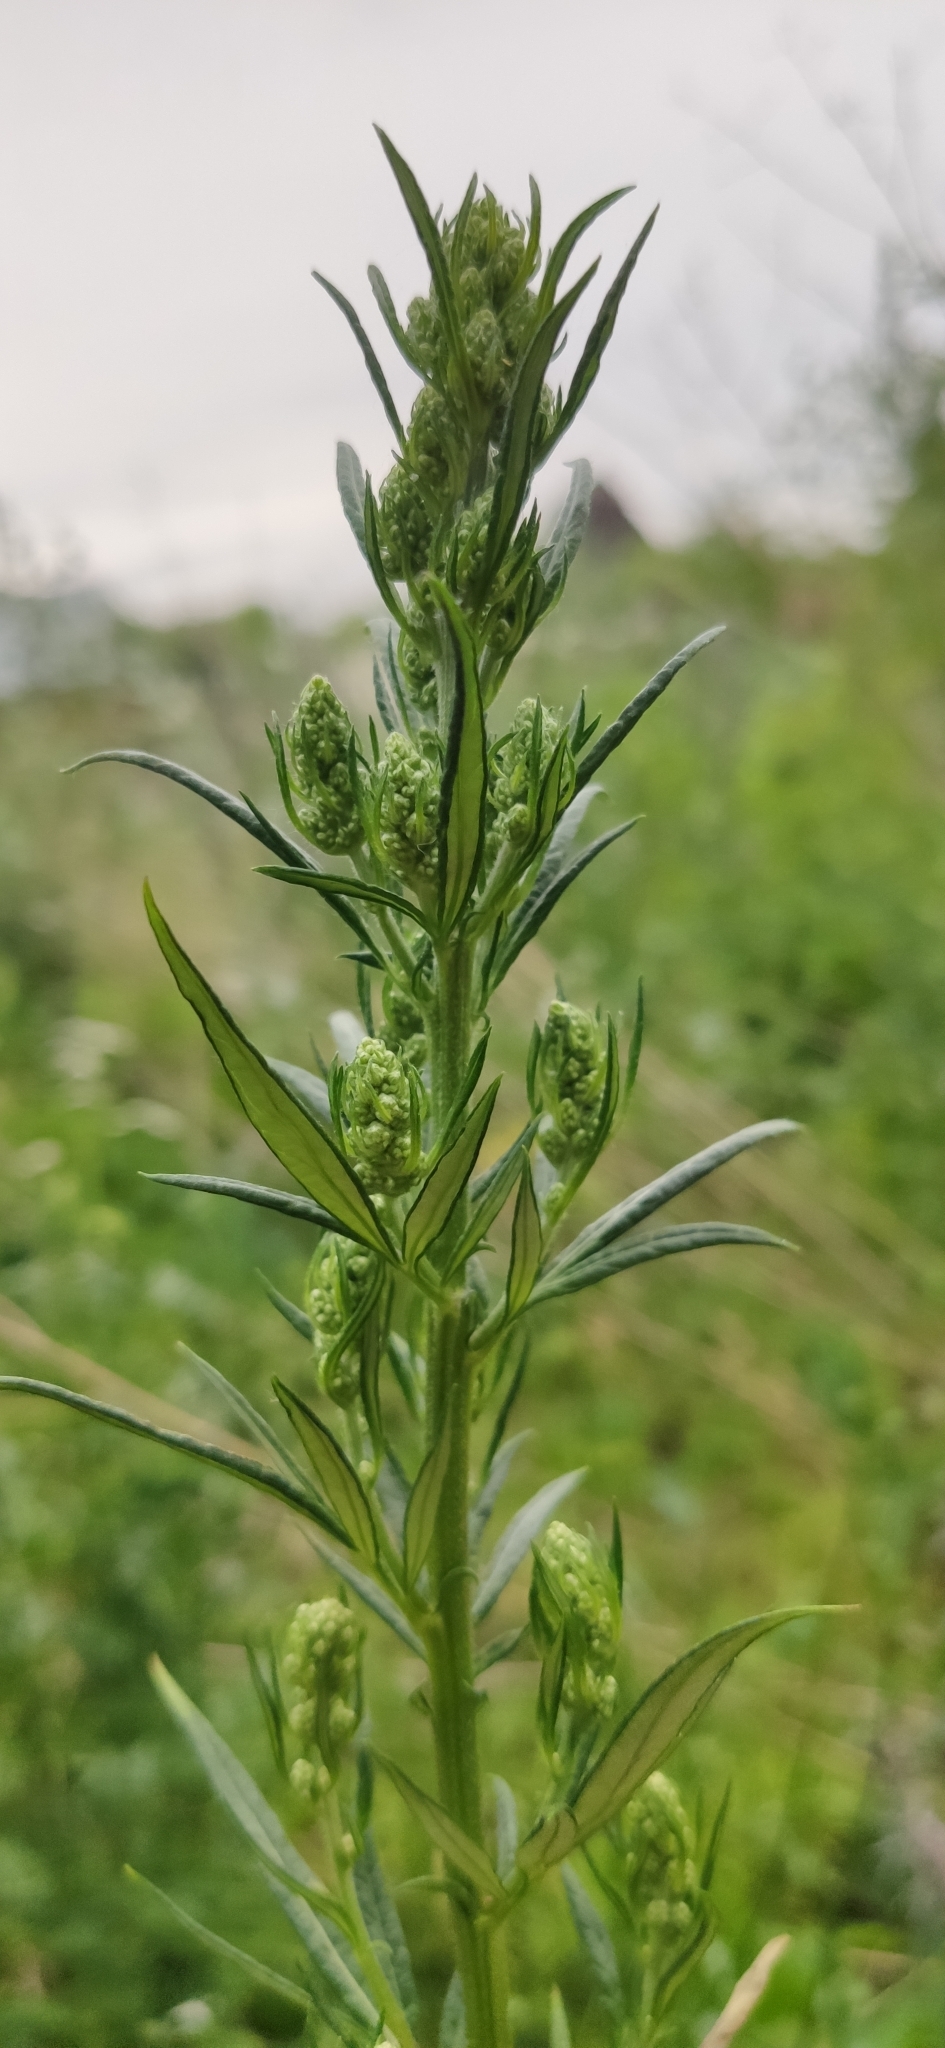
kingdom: Plantae
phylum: Tracheophyta
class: Magnoliopsida
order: Asterales
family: Asteraceae
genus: Artemisia
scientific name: Artemisia vulgaris
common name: Mugwort
